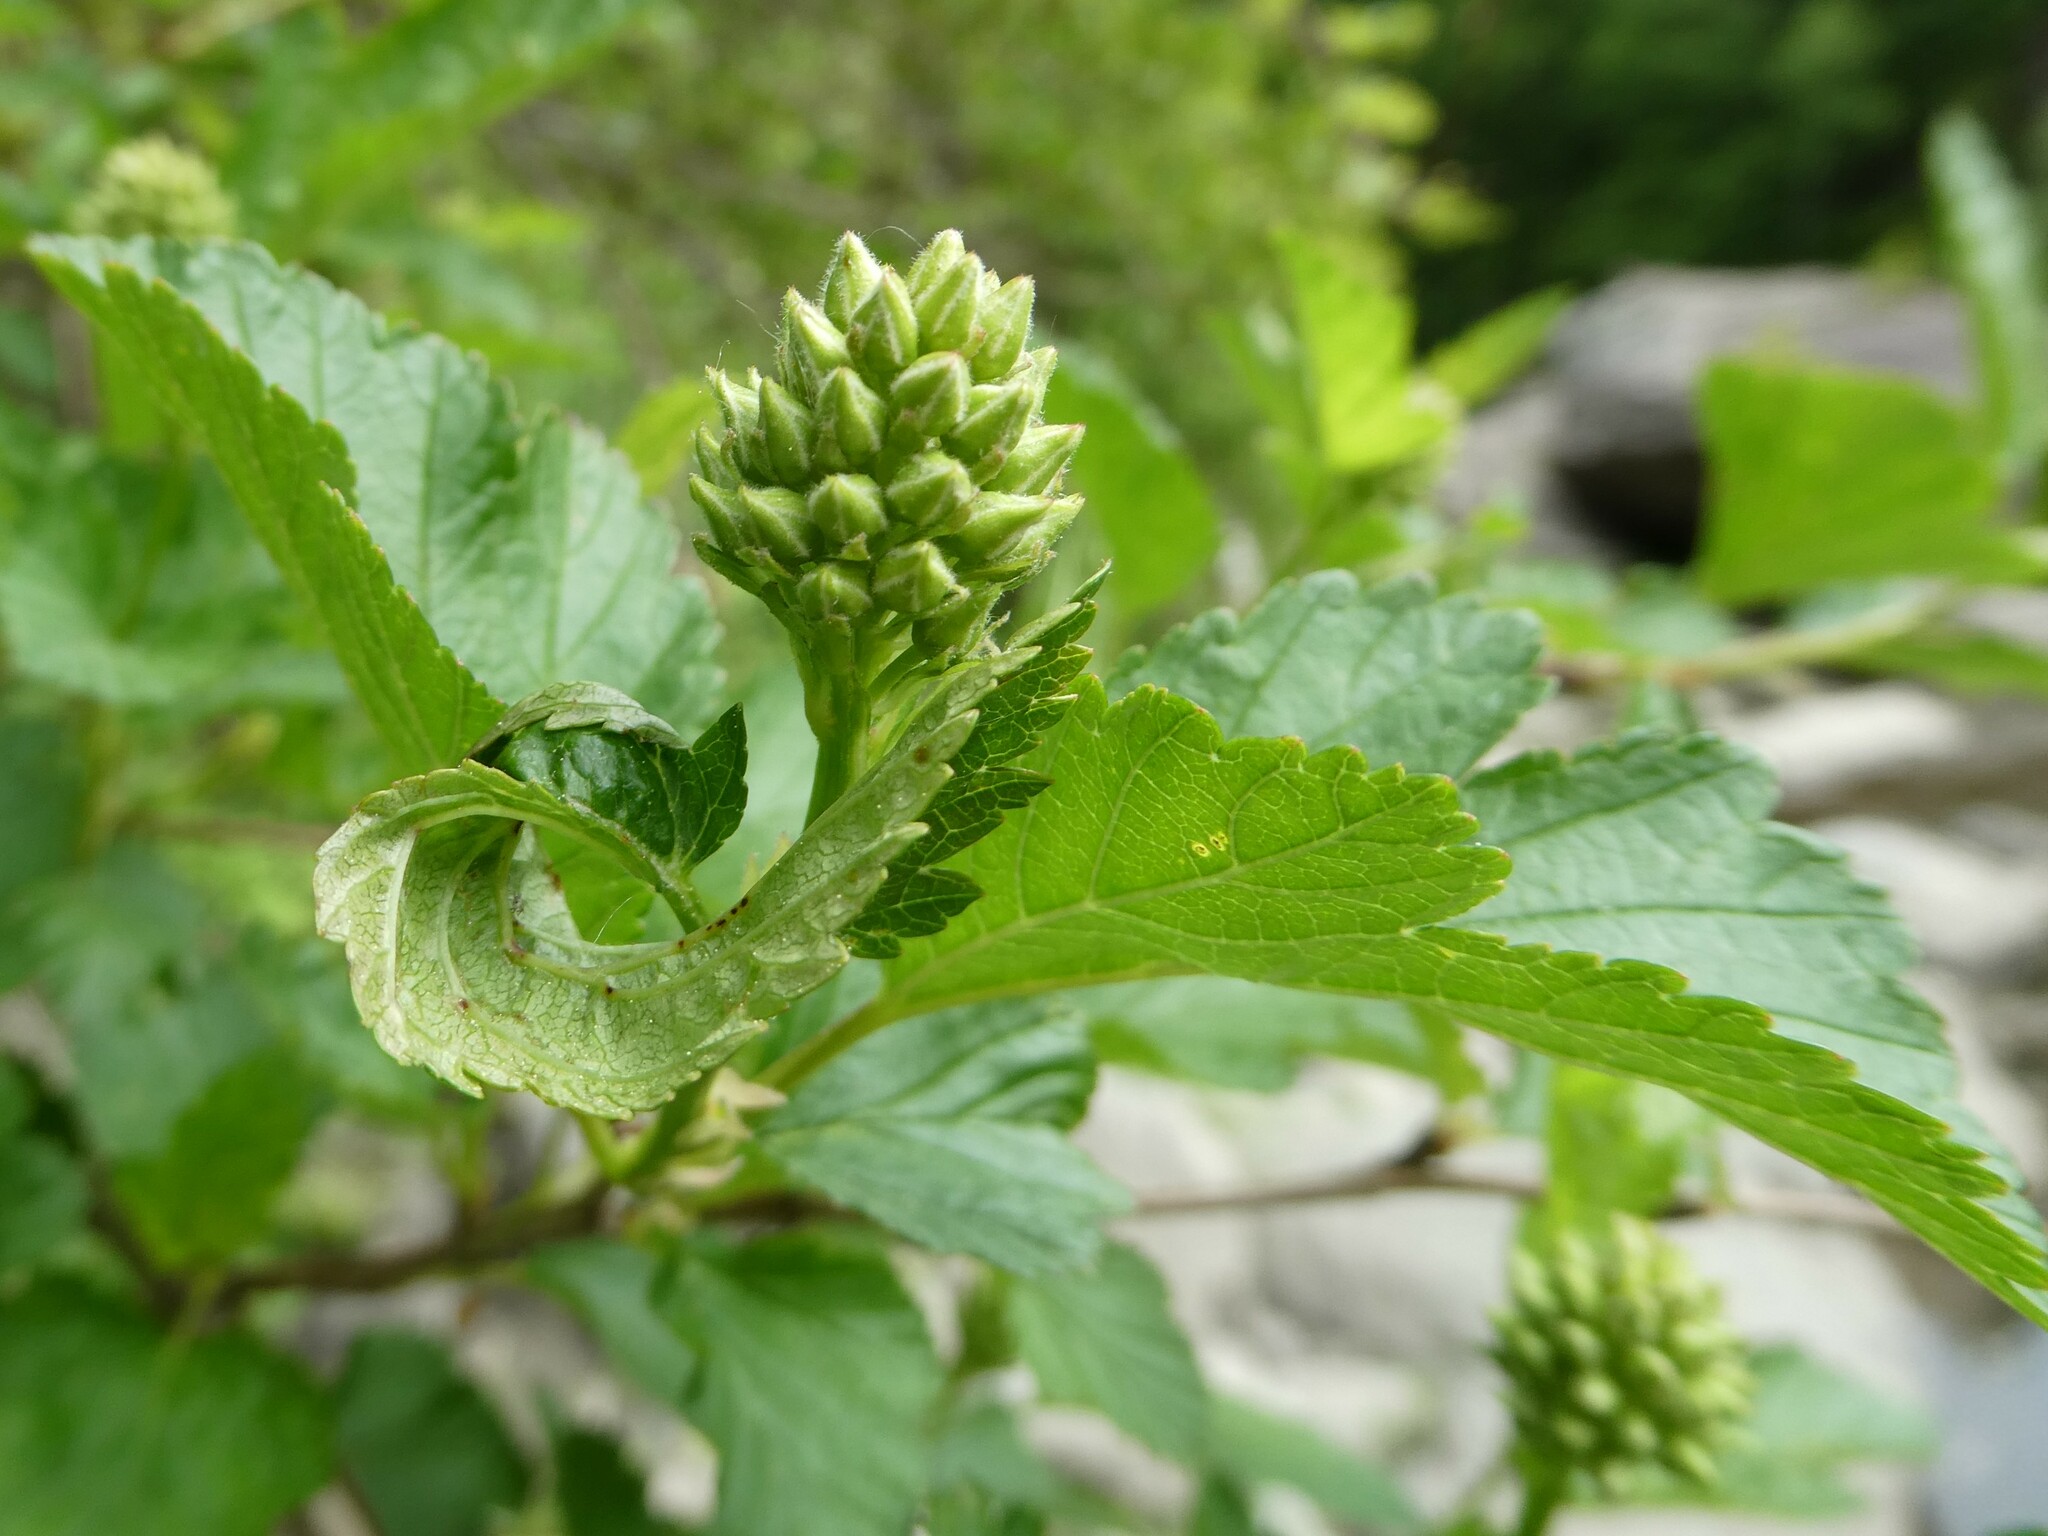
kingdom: Plantae
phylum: Tracheophyta
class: Magnoliopsida
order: Rosales
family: Rosaceae
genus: Physocarpus
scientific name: Physocarpus opulifolius
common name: Ninebark
